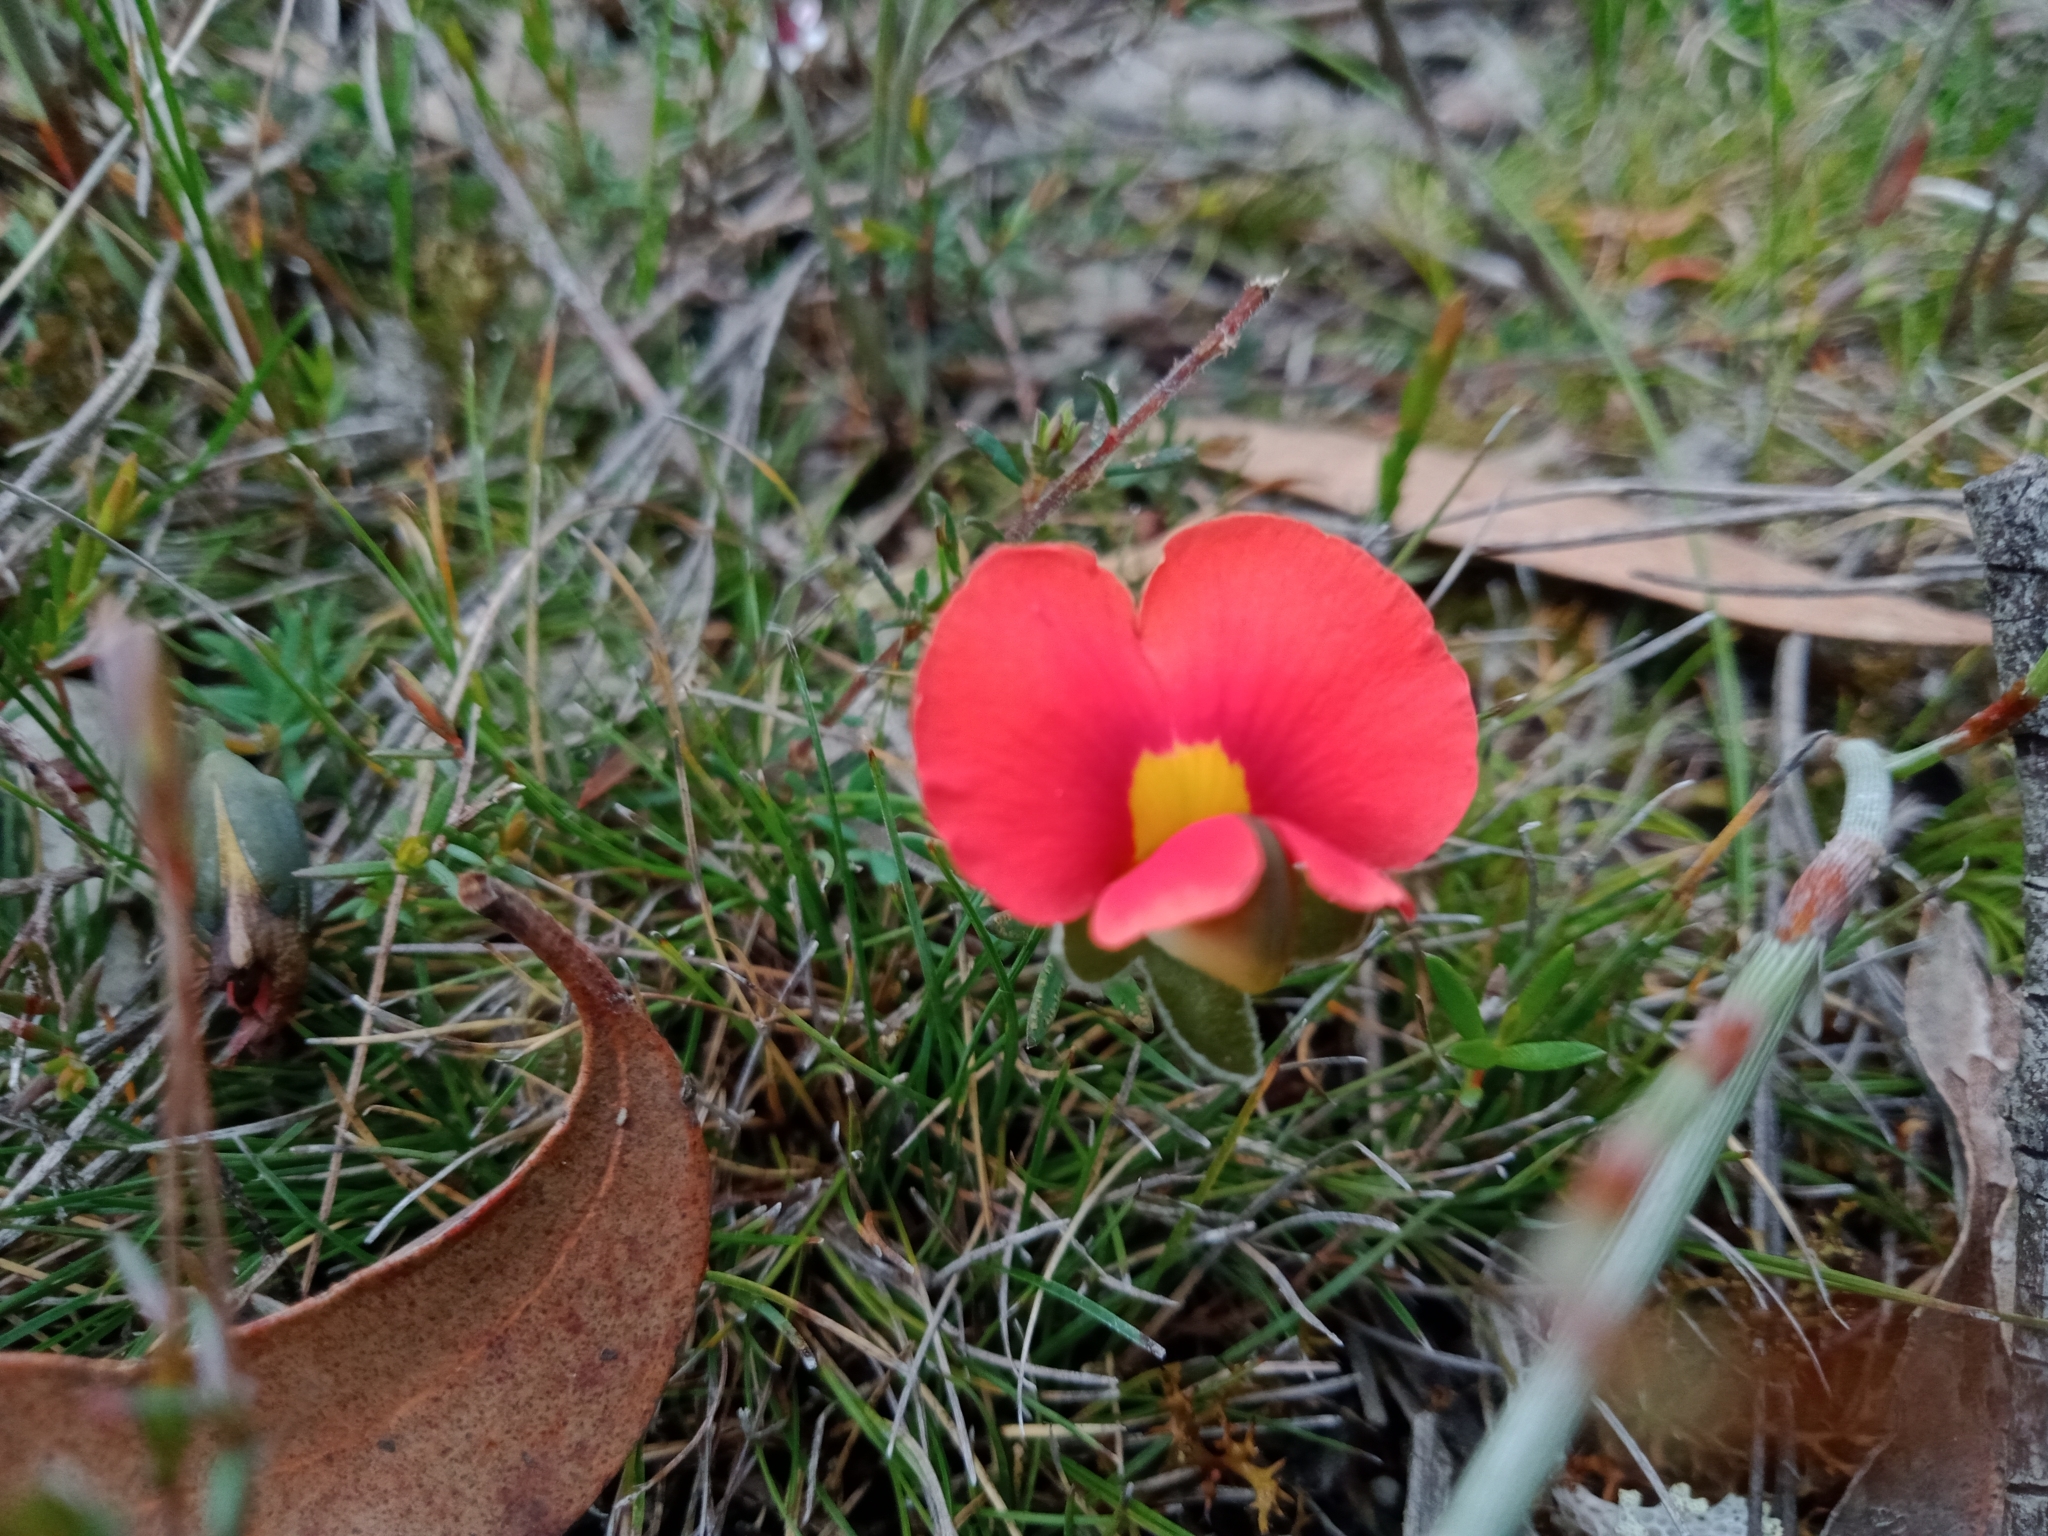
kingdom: Plantae
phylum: Tracheophyta
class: Magnoliopsida
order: Fabales
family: Fabaceae
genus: Gompholobium
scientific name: Gompholobium ecostatum
